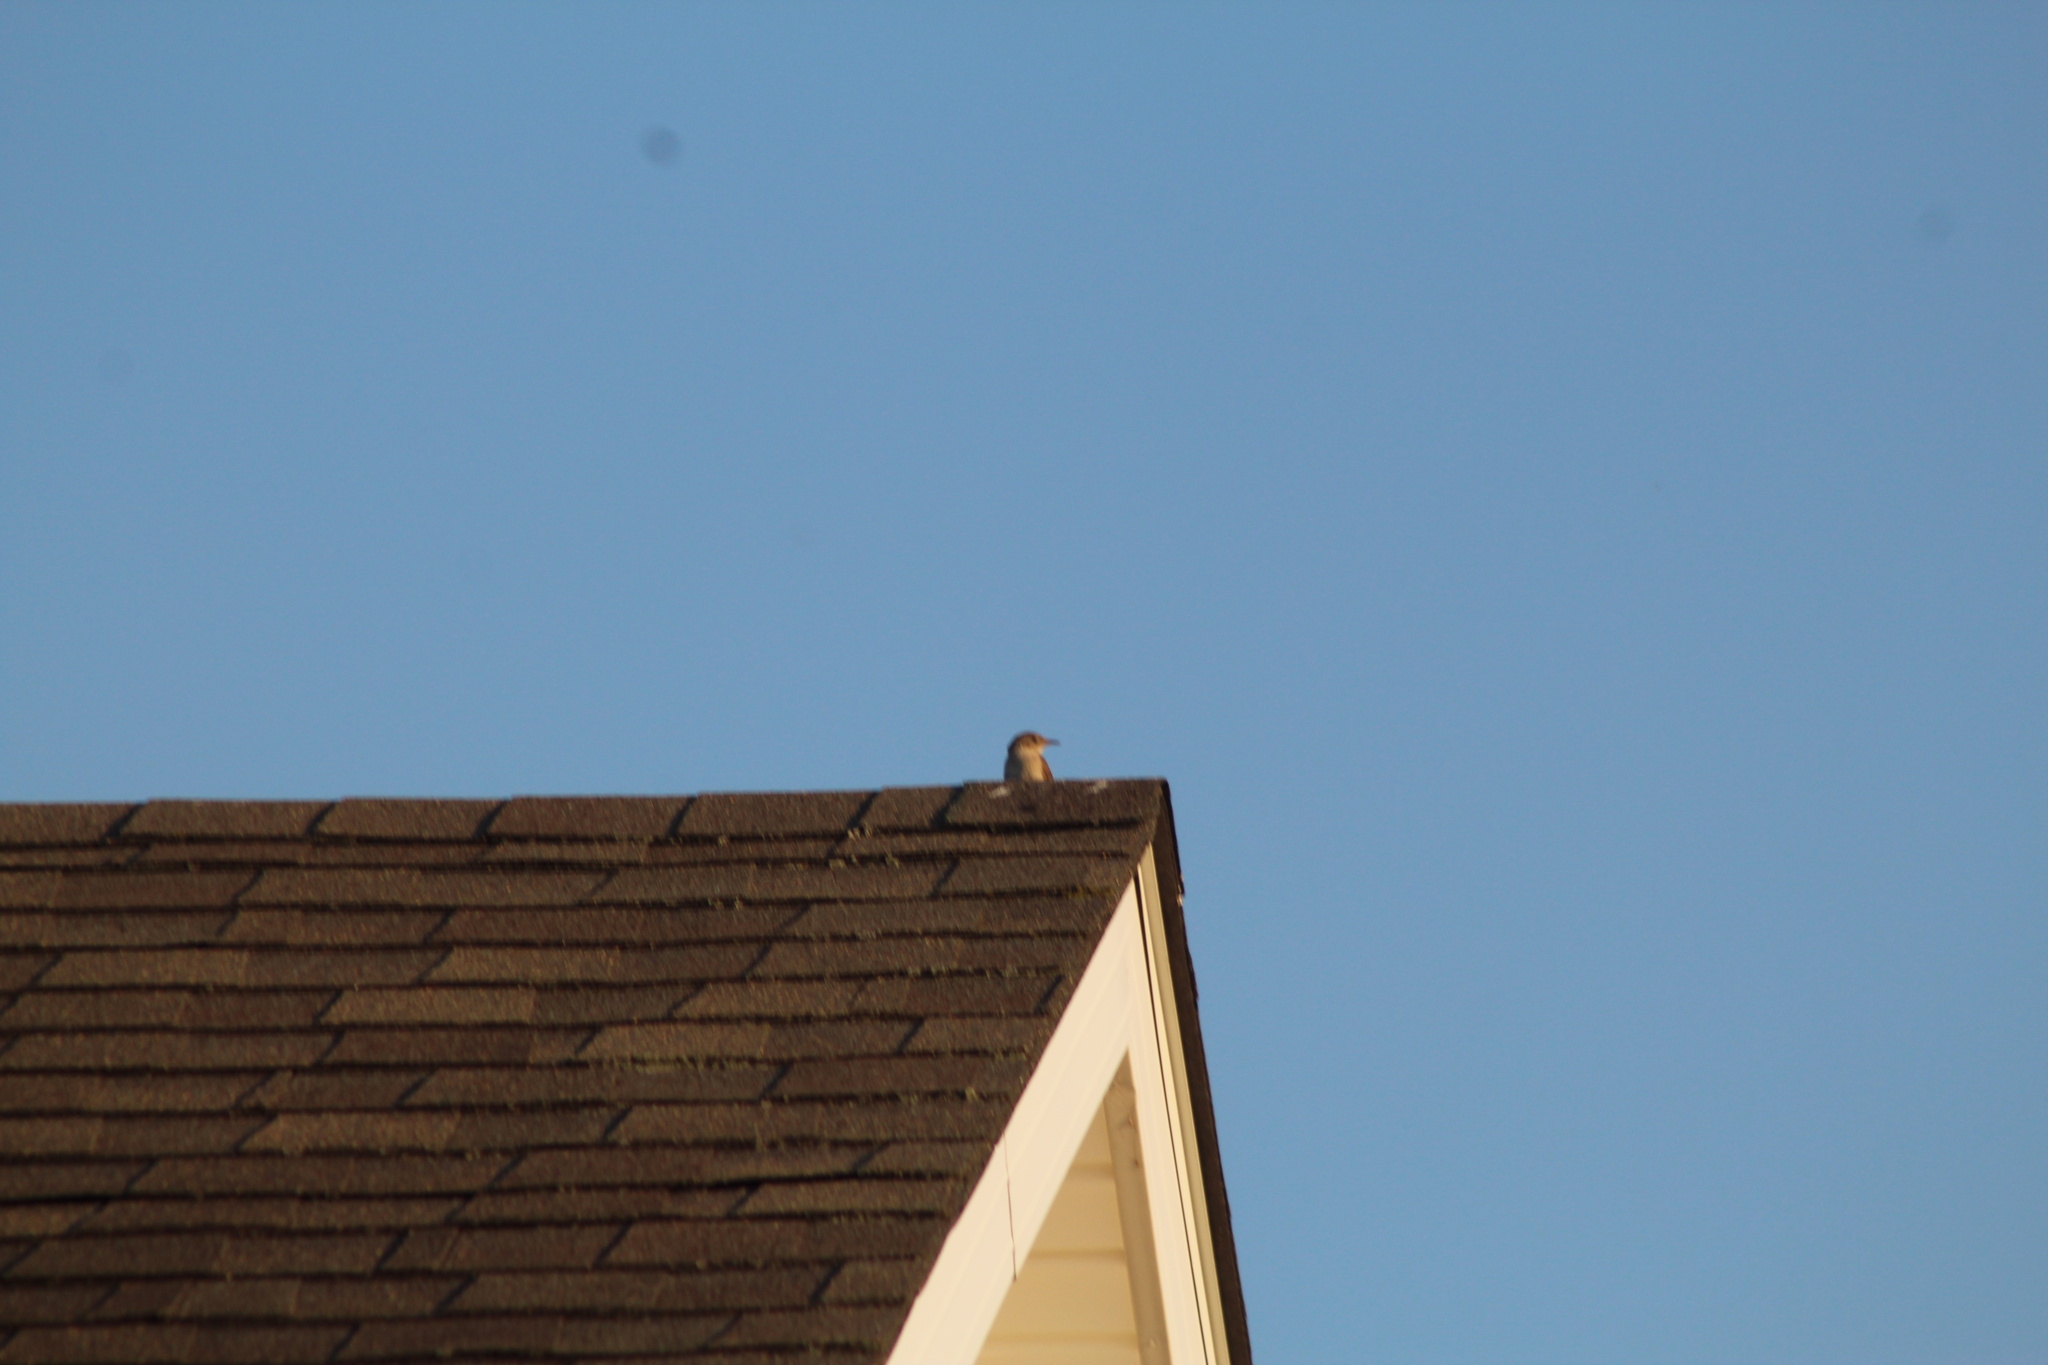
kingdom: Animalia
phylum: Chordata
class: Aves
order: Passeriformes
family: Troglodytidae
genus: Troglodytes
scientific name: Troglodytes aedon
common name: House wren
